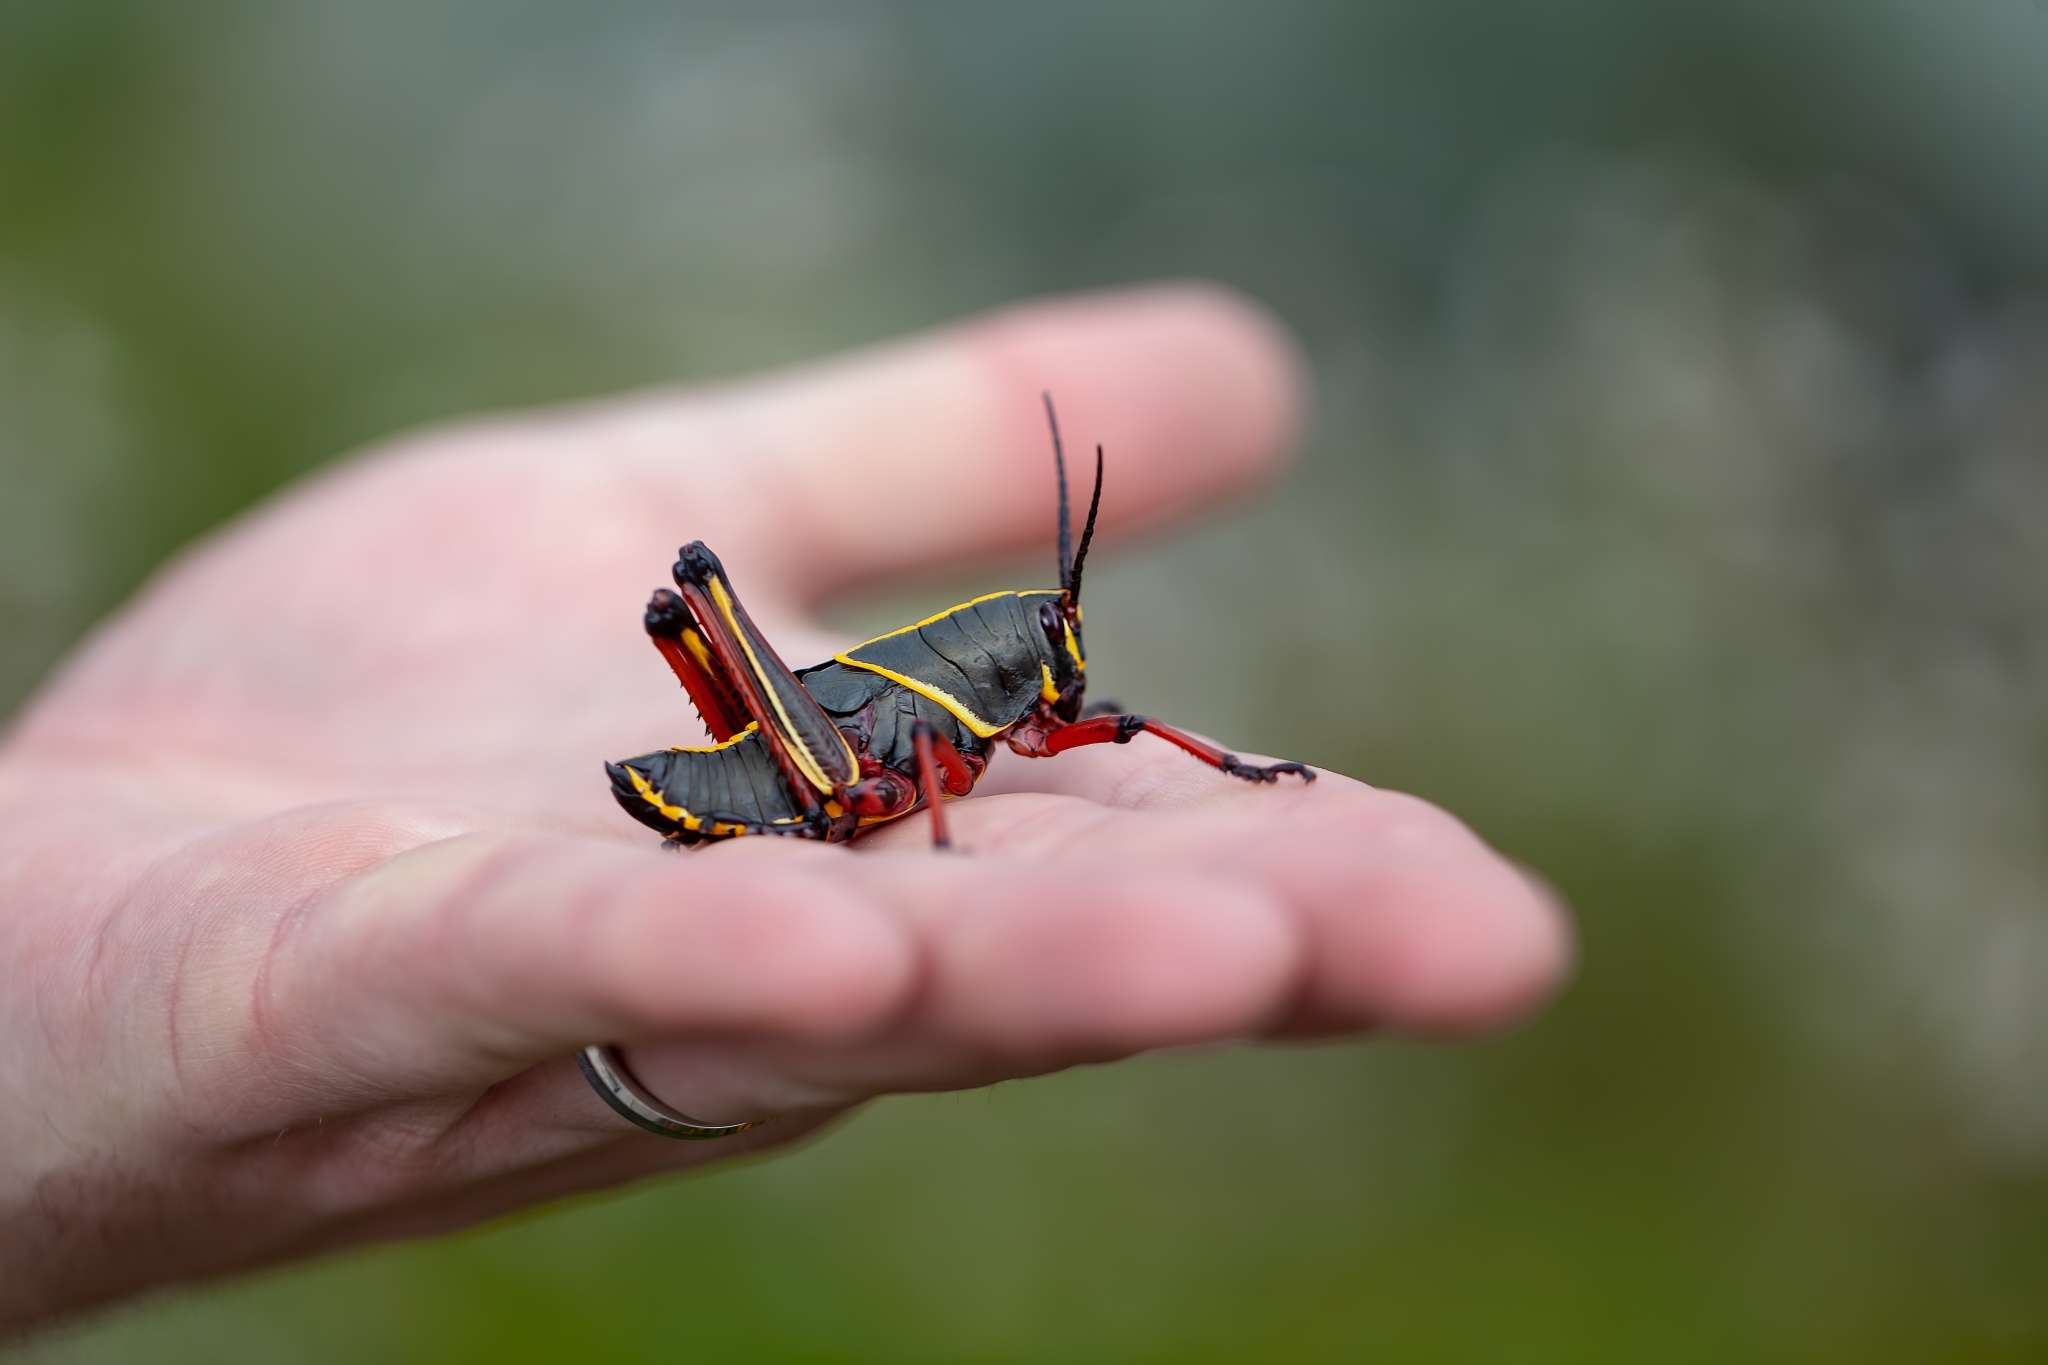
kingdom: Animalia
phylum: Arthropoda
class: Insecta
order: Orthoptera
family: Romaleidae
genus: Romalea
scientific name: Romalea microptera
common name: Eastern lubber grasshopper
